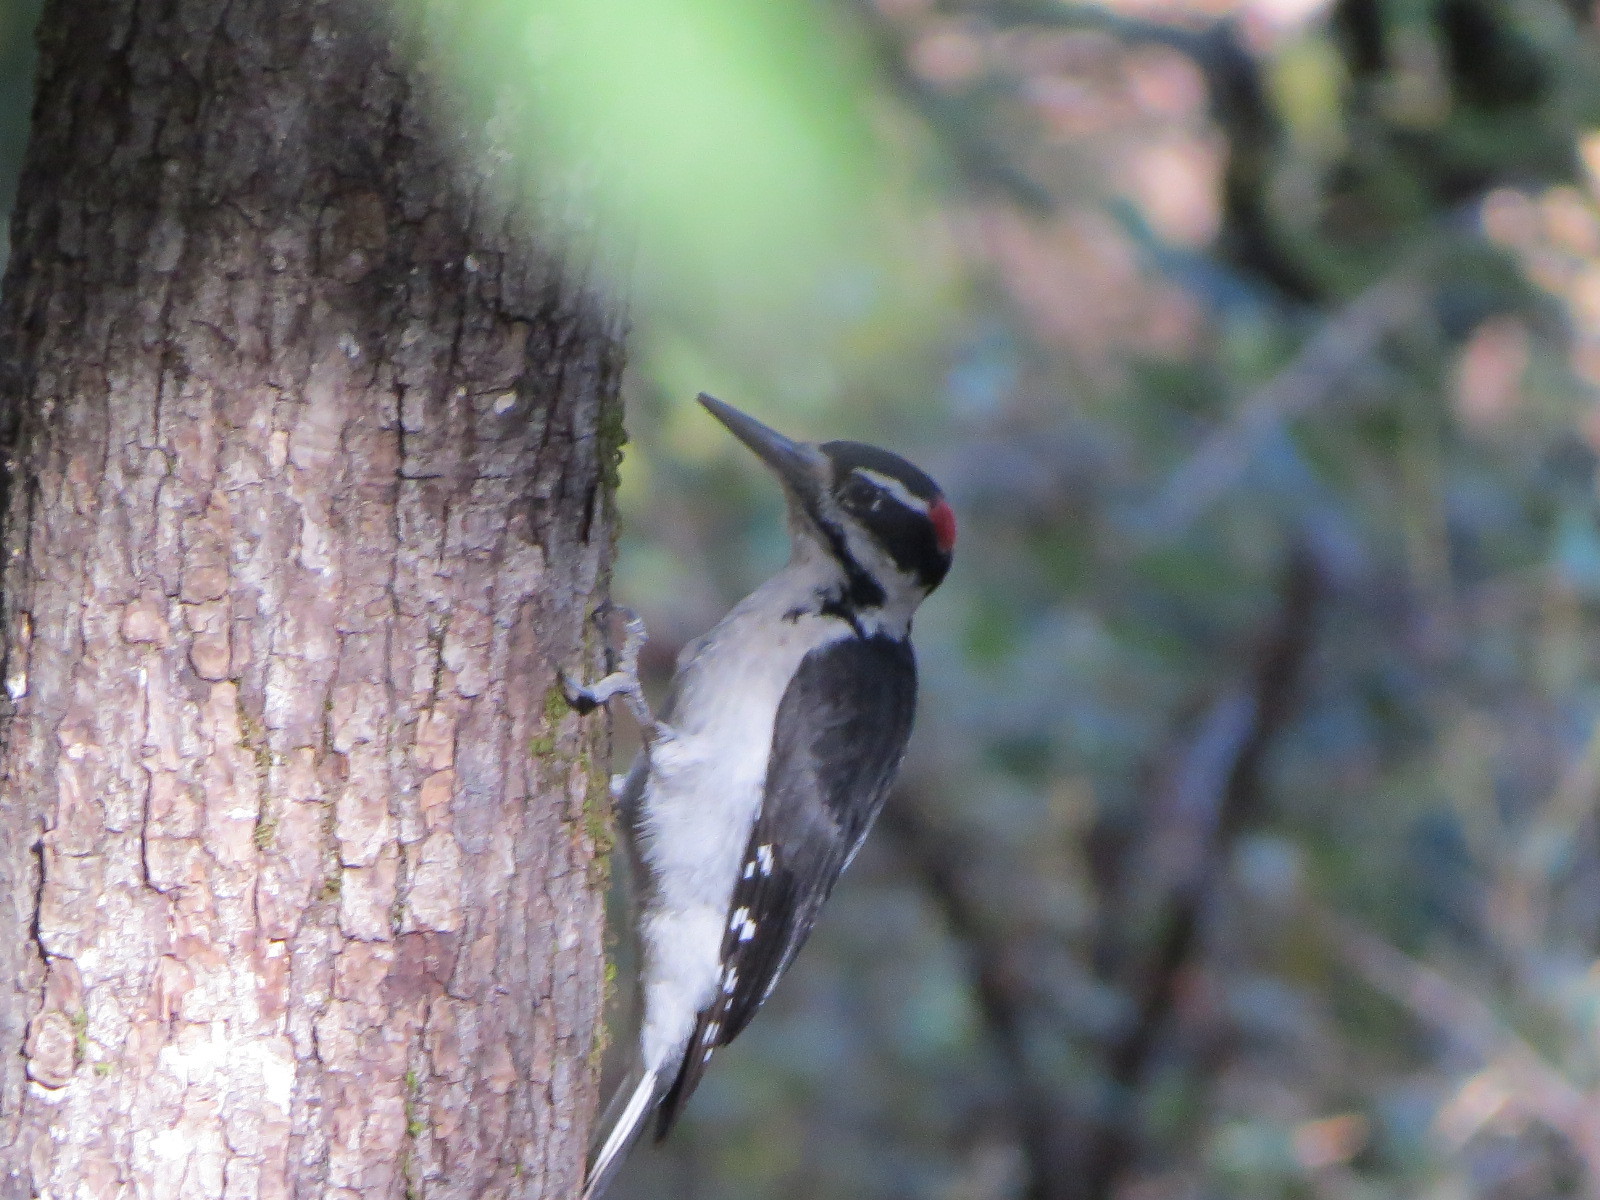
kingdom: Animalia
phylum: Chordata
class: Aves
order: Piciformes
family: Picidae
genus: Leuconotopicus
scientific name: Leuconotopicus villosus
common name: Hairy woodpecker
